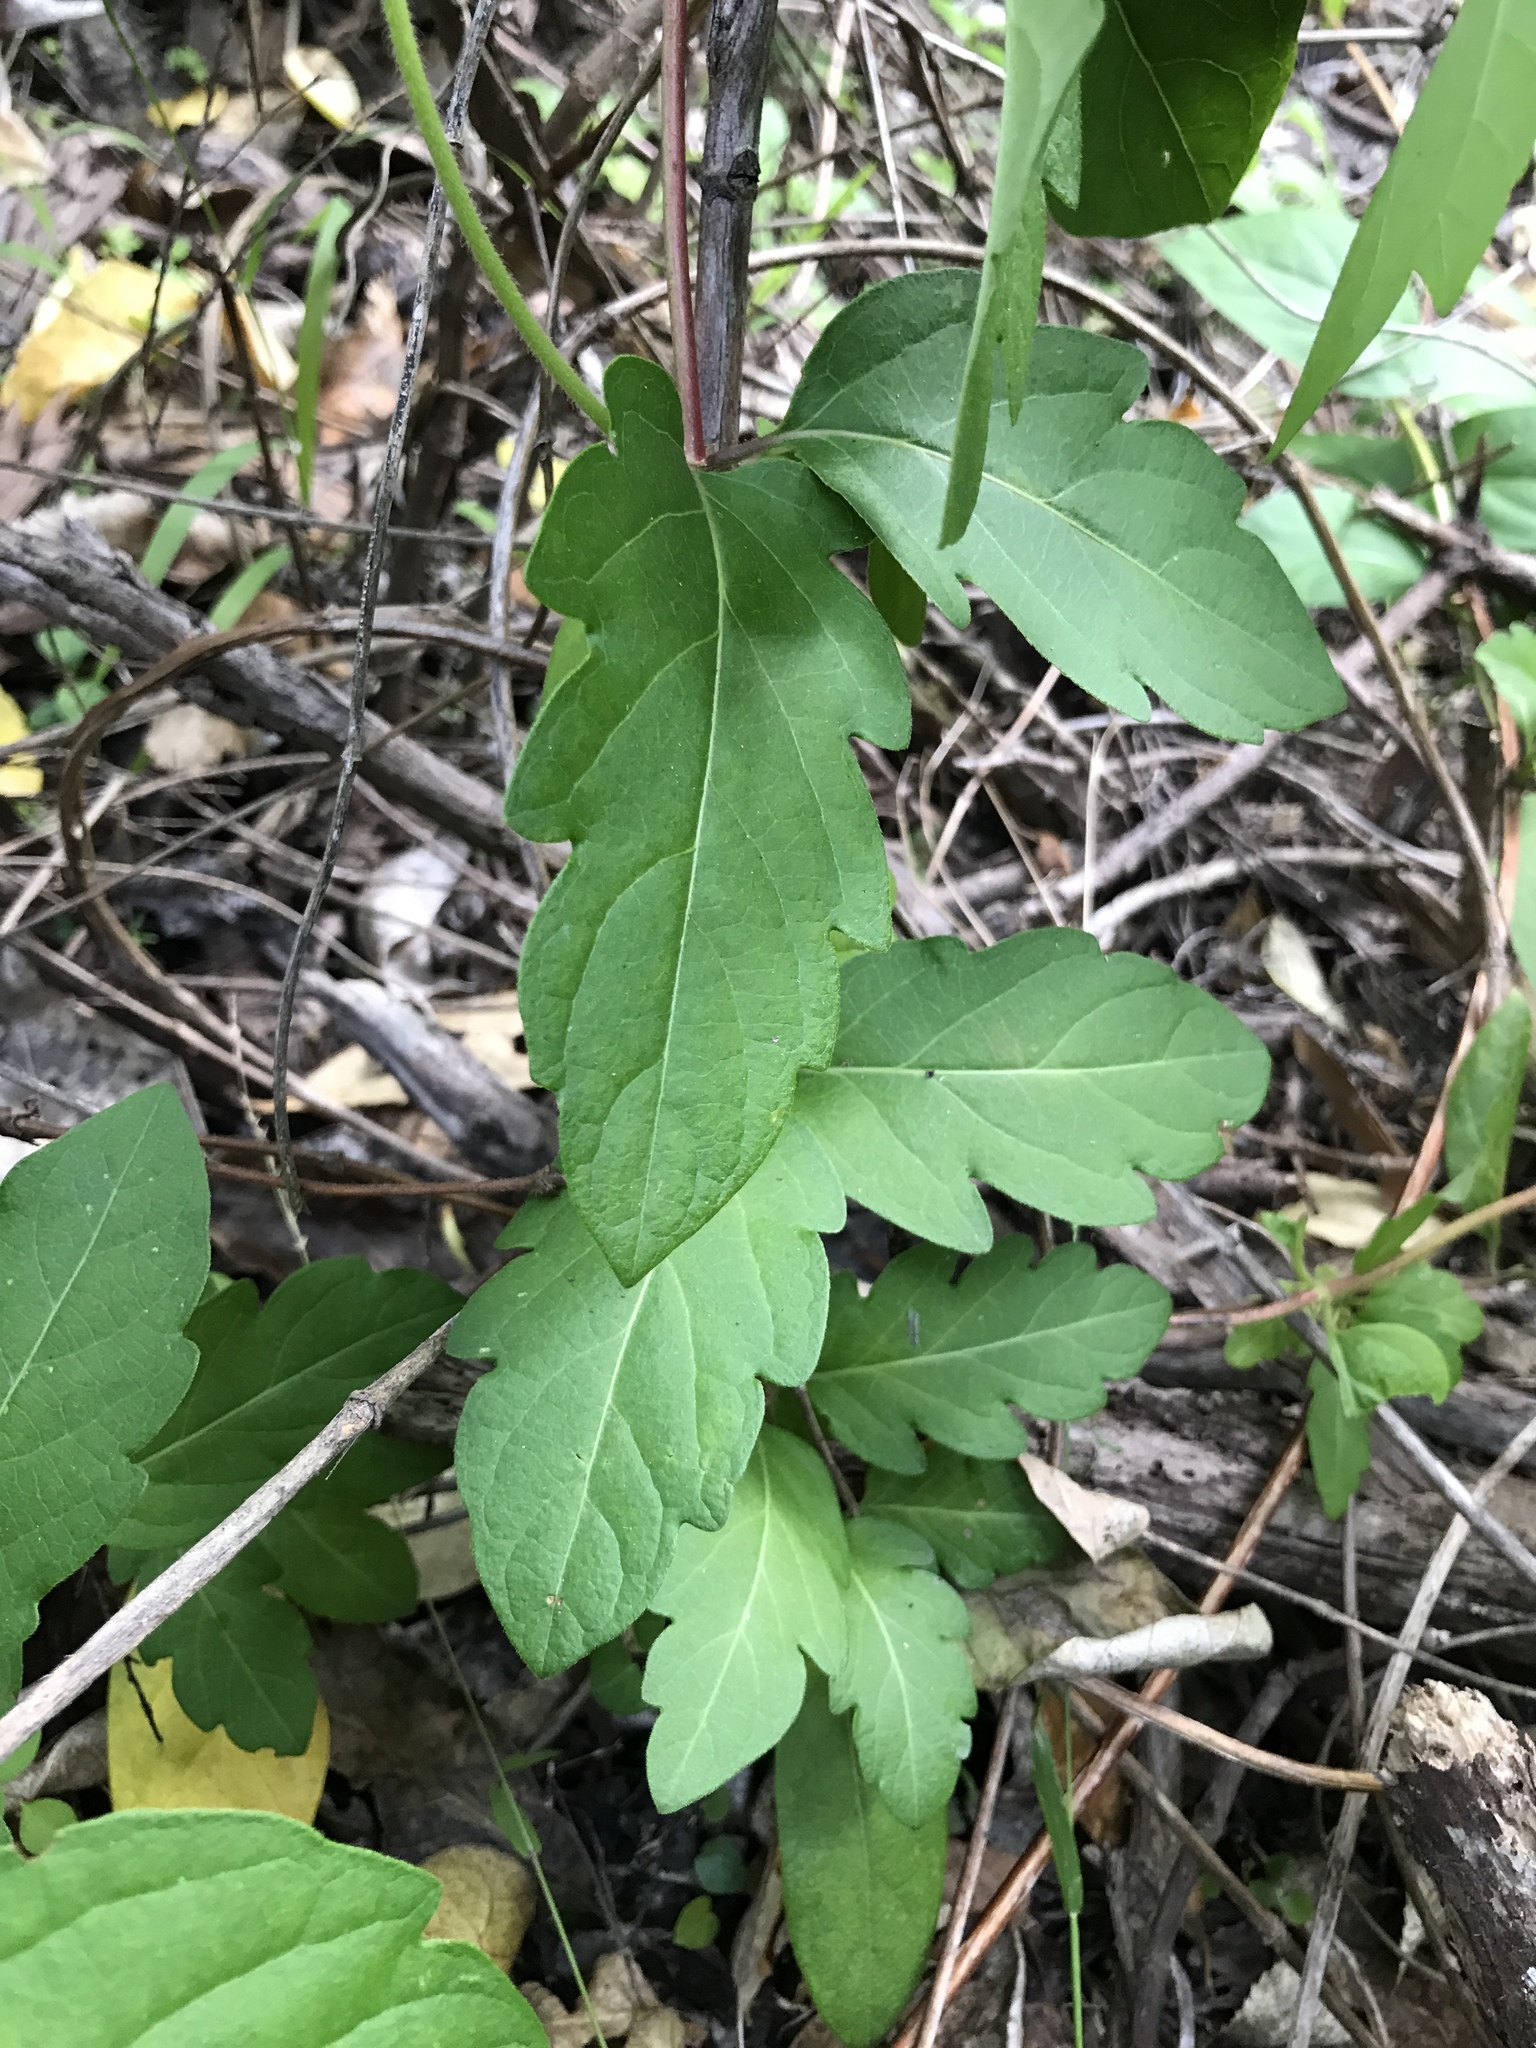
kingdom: Plantae
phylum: Tracheophyta
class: Magnoliopsida
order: Dipsacales
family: Caprifoliaceae
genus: Lonicera
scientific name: Lonicera japonica
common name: Japanese honeysuckle
